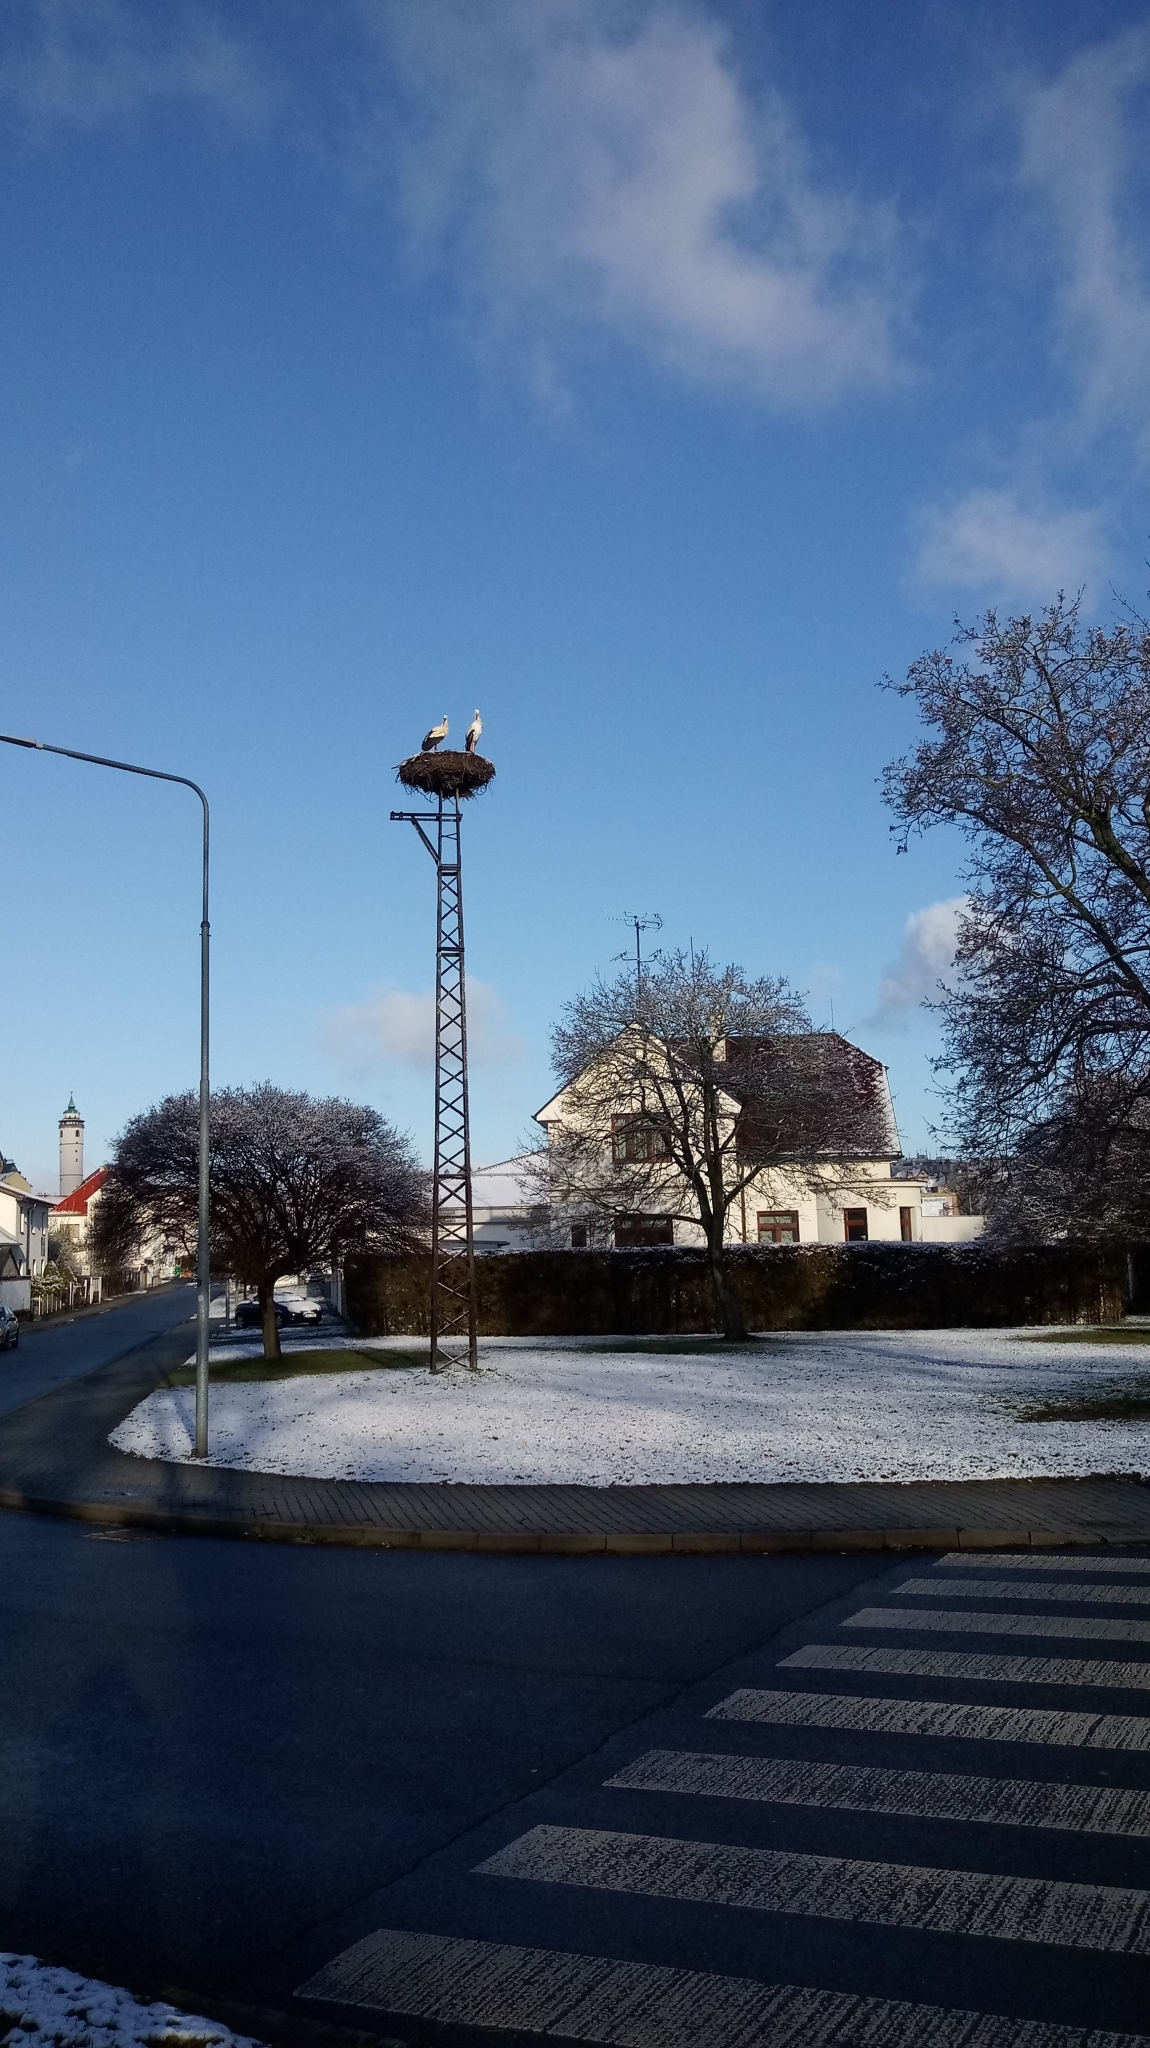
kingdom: Animalia
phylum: Chordata
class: Aves
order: Ciconiiformes
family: Ciconiidae
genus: Ciconia
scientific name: Ciconia ciconia
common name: White stork
